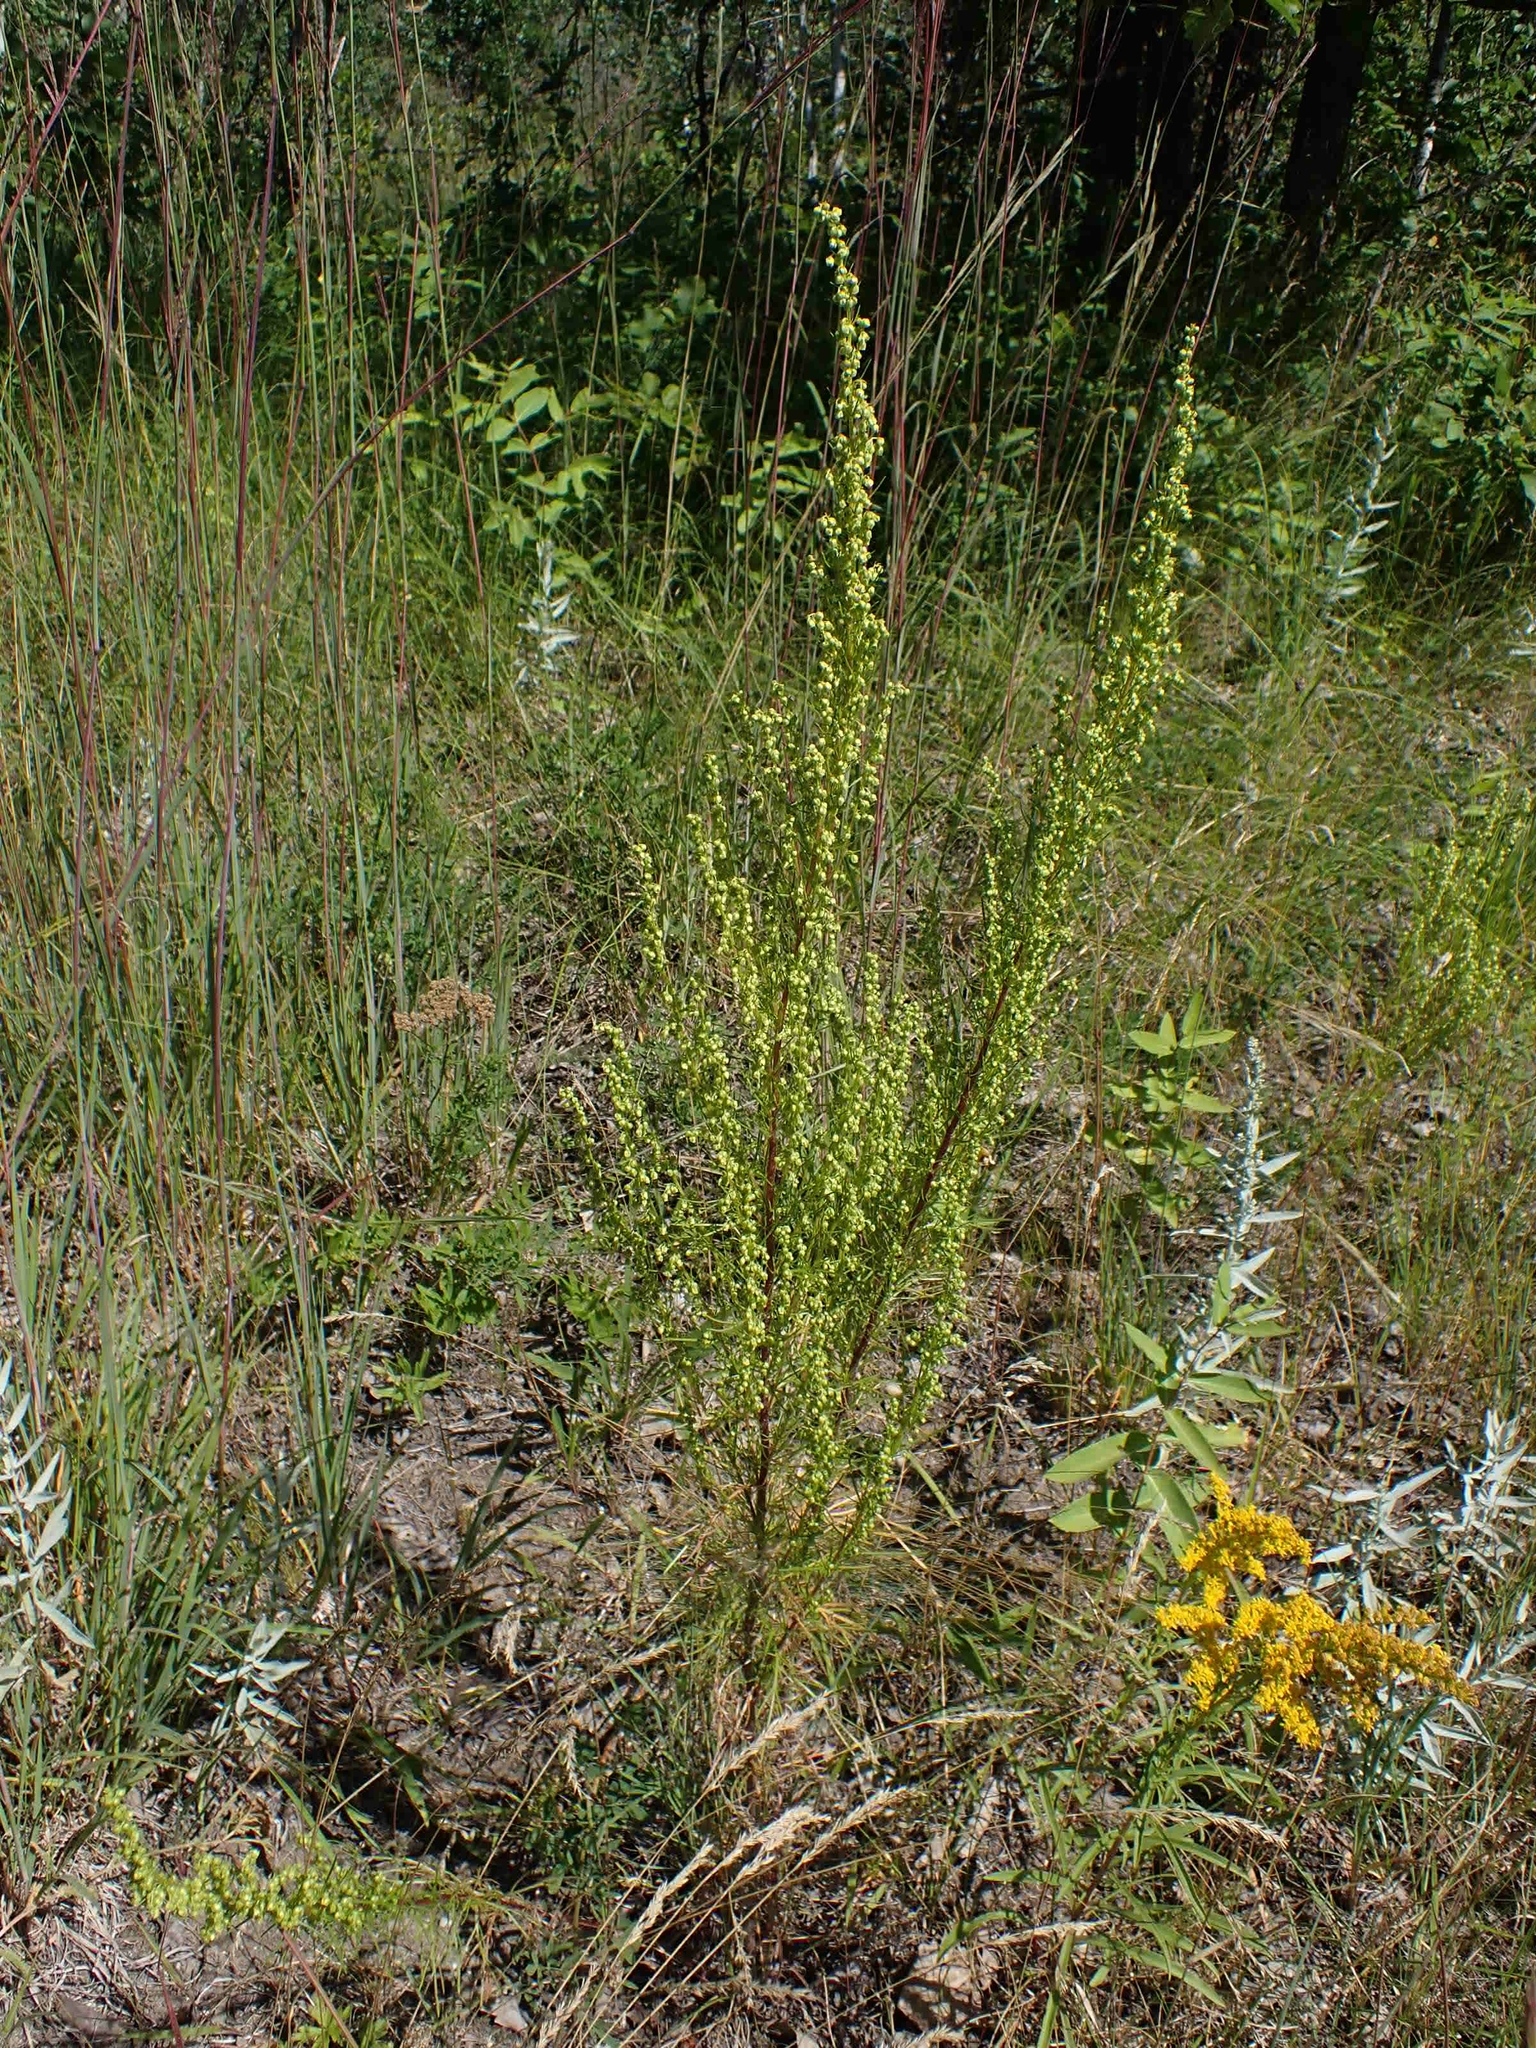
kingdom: Plantae
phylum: Tracheophyta
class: Magnoliopsida
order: Asterales
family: Asteraceae
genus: Artemisia
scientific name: Artemisia campestris
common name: Field wormwood
